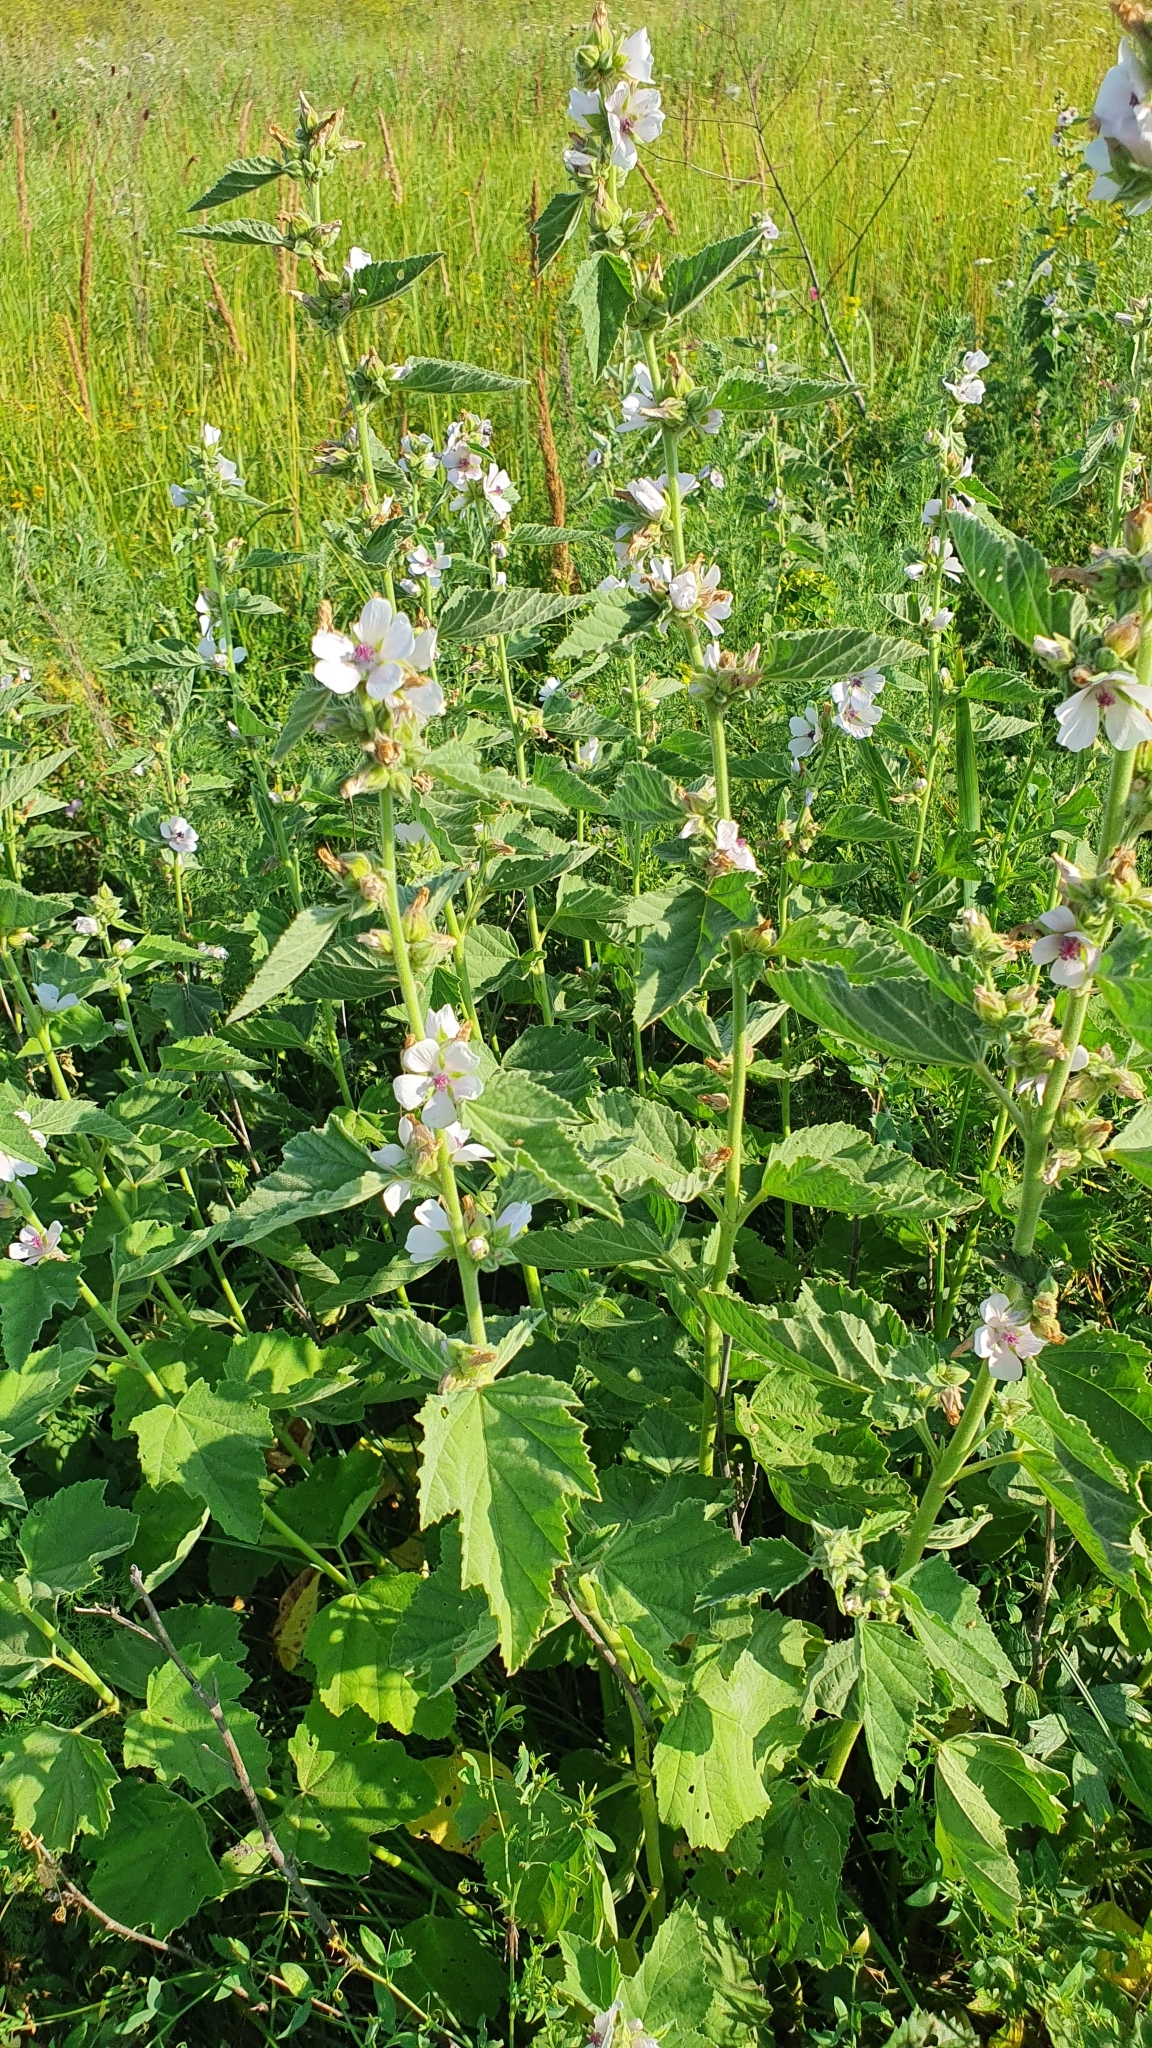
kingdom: Plantae
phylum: Tracheophyta
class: Magnoliopsida
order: Malvales
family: Malvaceae
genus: Althaea
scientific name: Althaea officinalis
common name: Marsh-mallow
